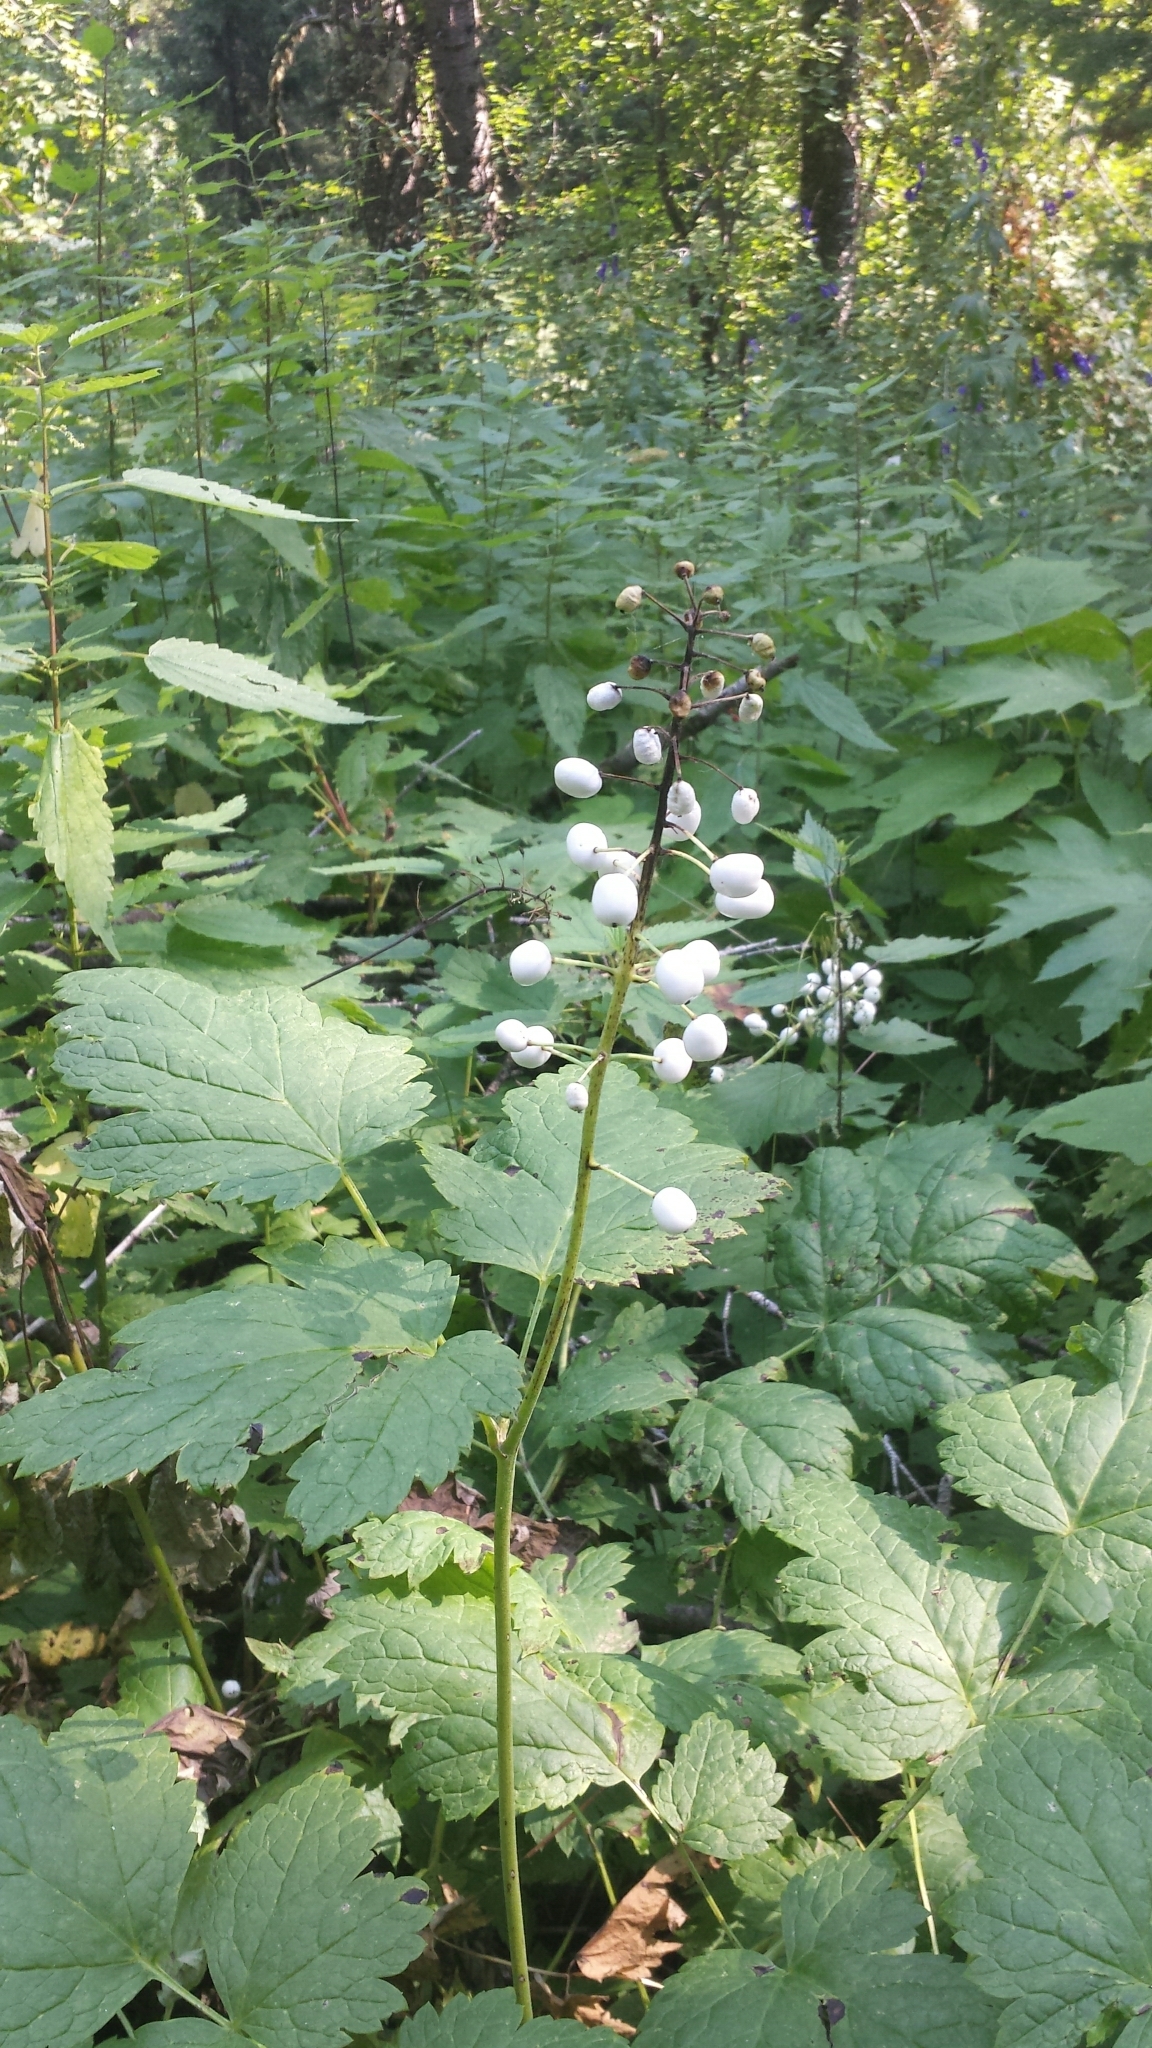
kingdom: Plantae
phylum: Tracheophyta
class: Magnoliopsida
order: Ranunculales
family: Ranunculaceae
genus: Actaea
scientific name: Actaea rubra
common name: Red baneberry
